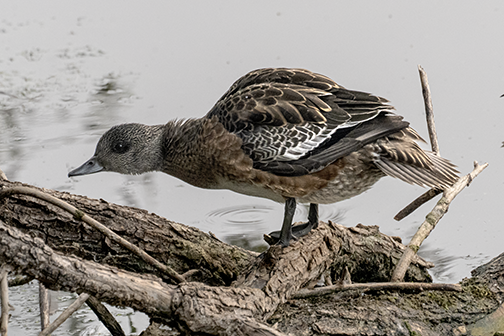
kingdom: Animalia
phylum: Chordata
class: Aves
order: Anseriformes
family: Anatidae
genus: Mareca
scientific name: Mareca americana
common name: American wigeon
